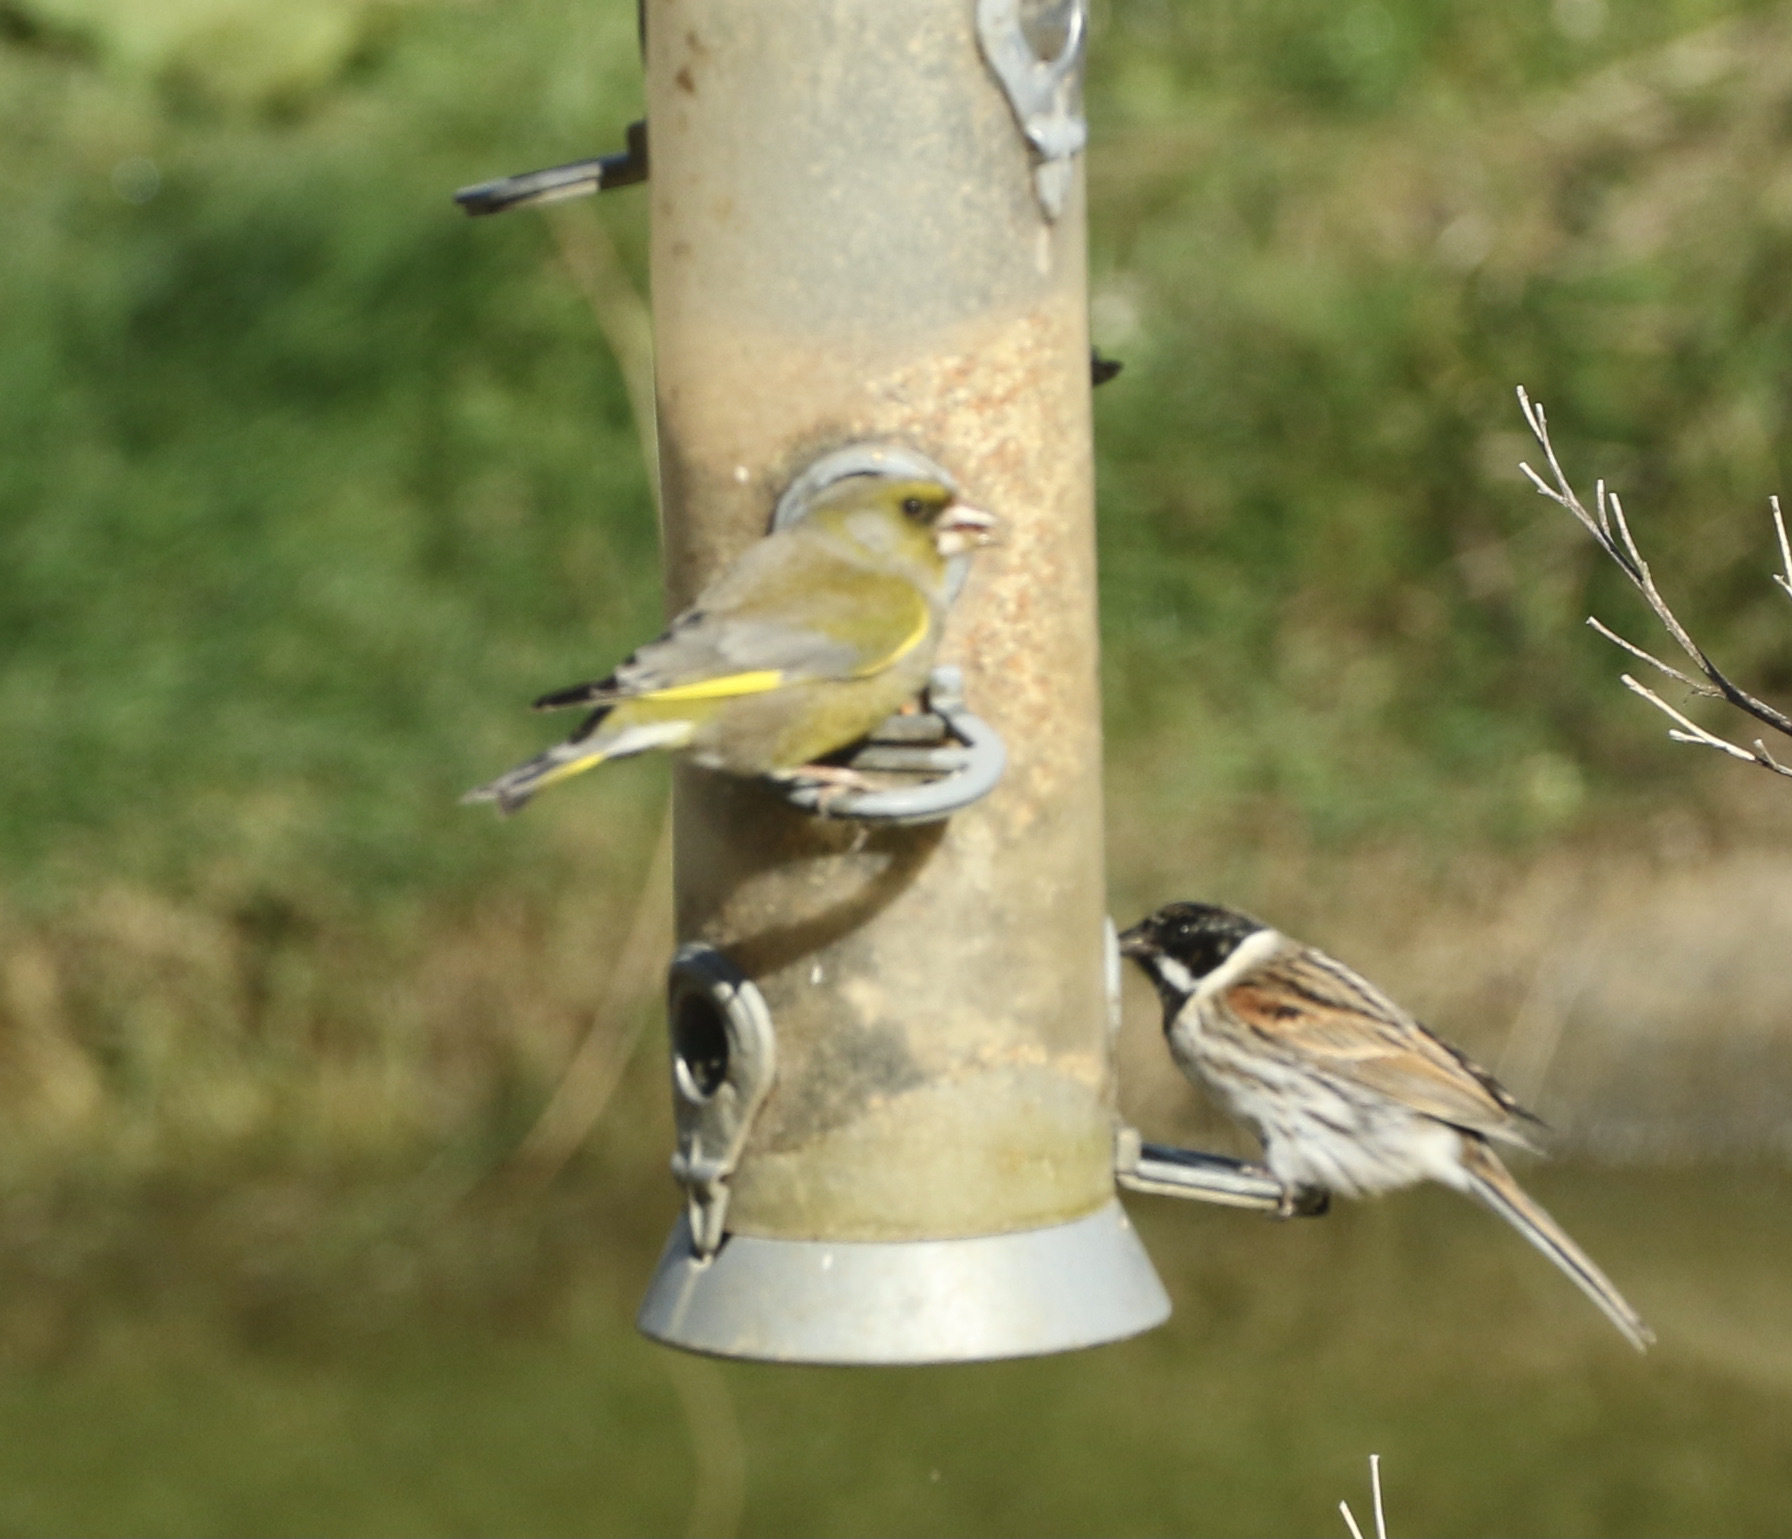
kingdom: Plantae
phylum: Tracheophyta
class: Liliopsida
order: Poales
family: Poaceae
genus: Chloris
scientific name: Chloris chloris
